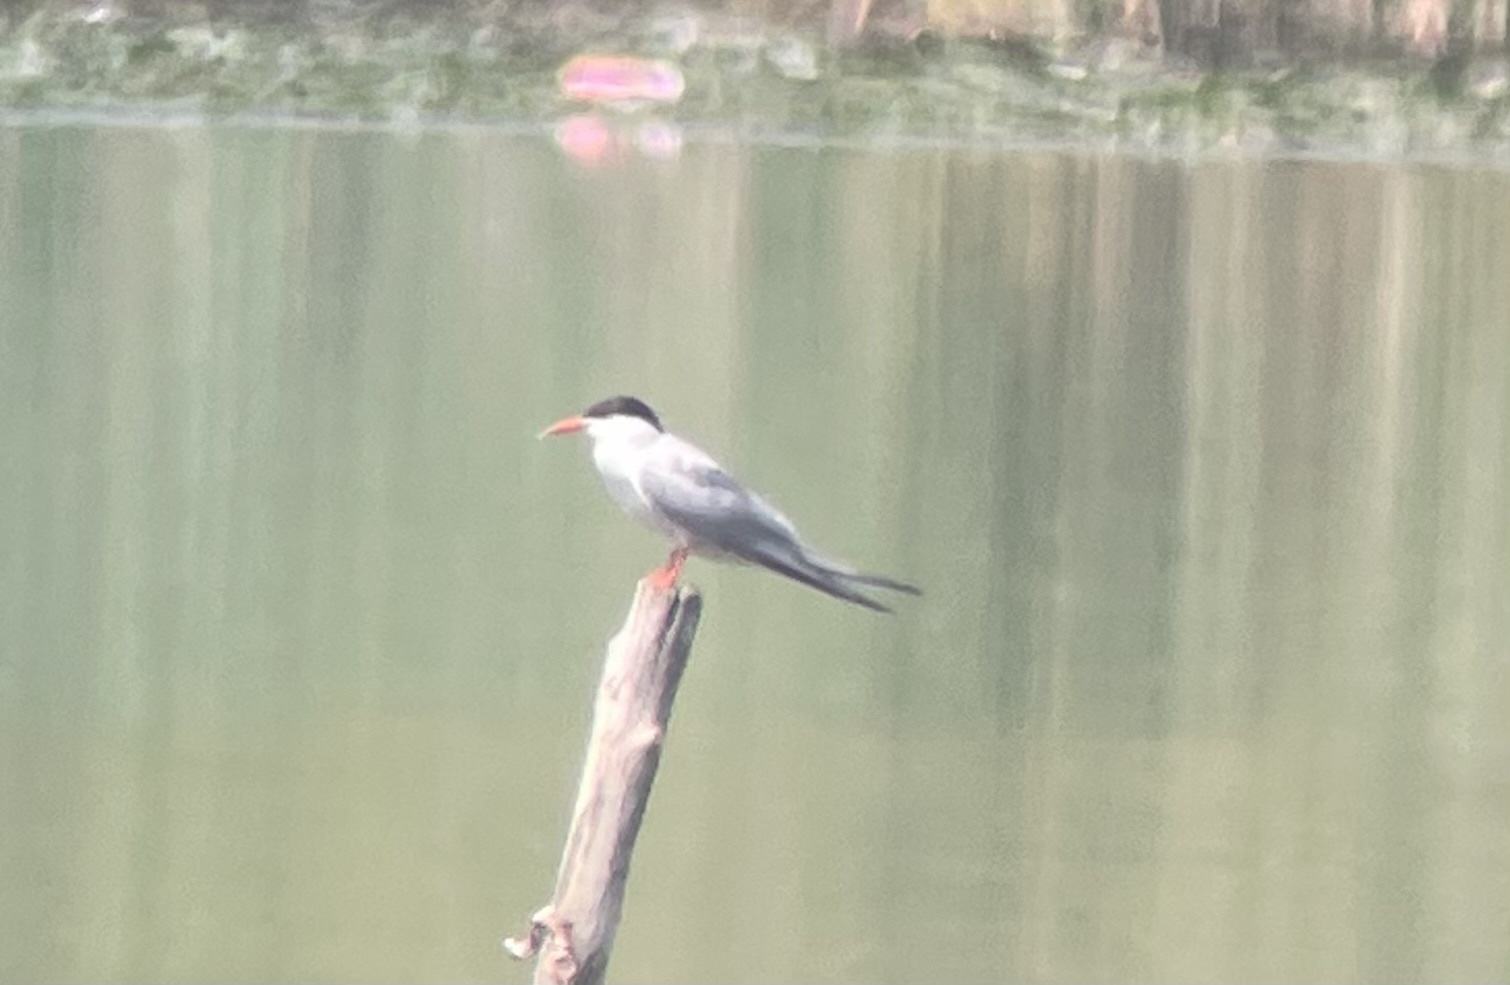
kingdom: Animalia
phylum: Chordata
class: Aves
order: Charadriiformes
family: Laridae
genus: Sterna
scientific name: Sterna hirundo
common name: Common tern
